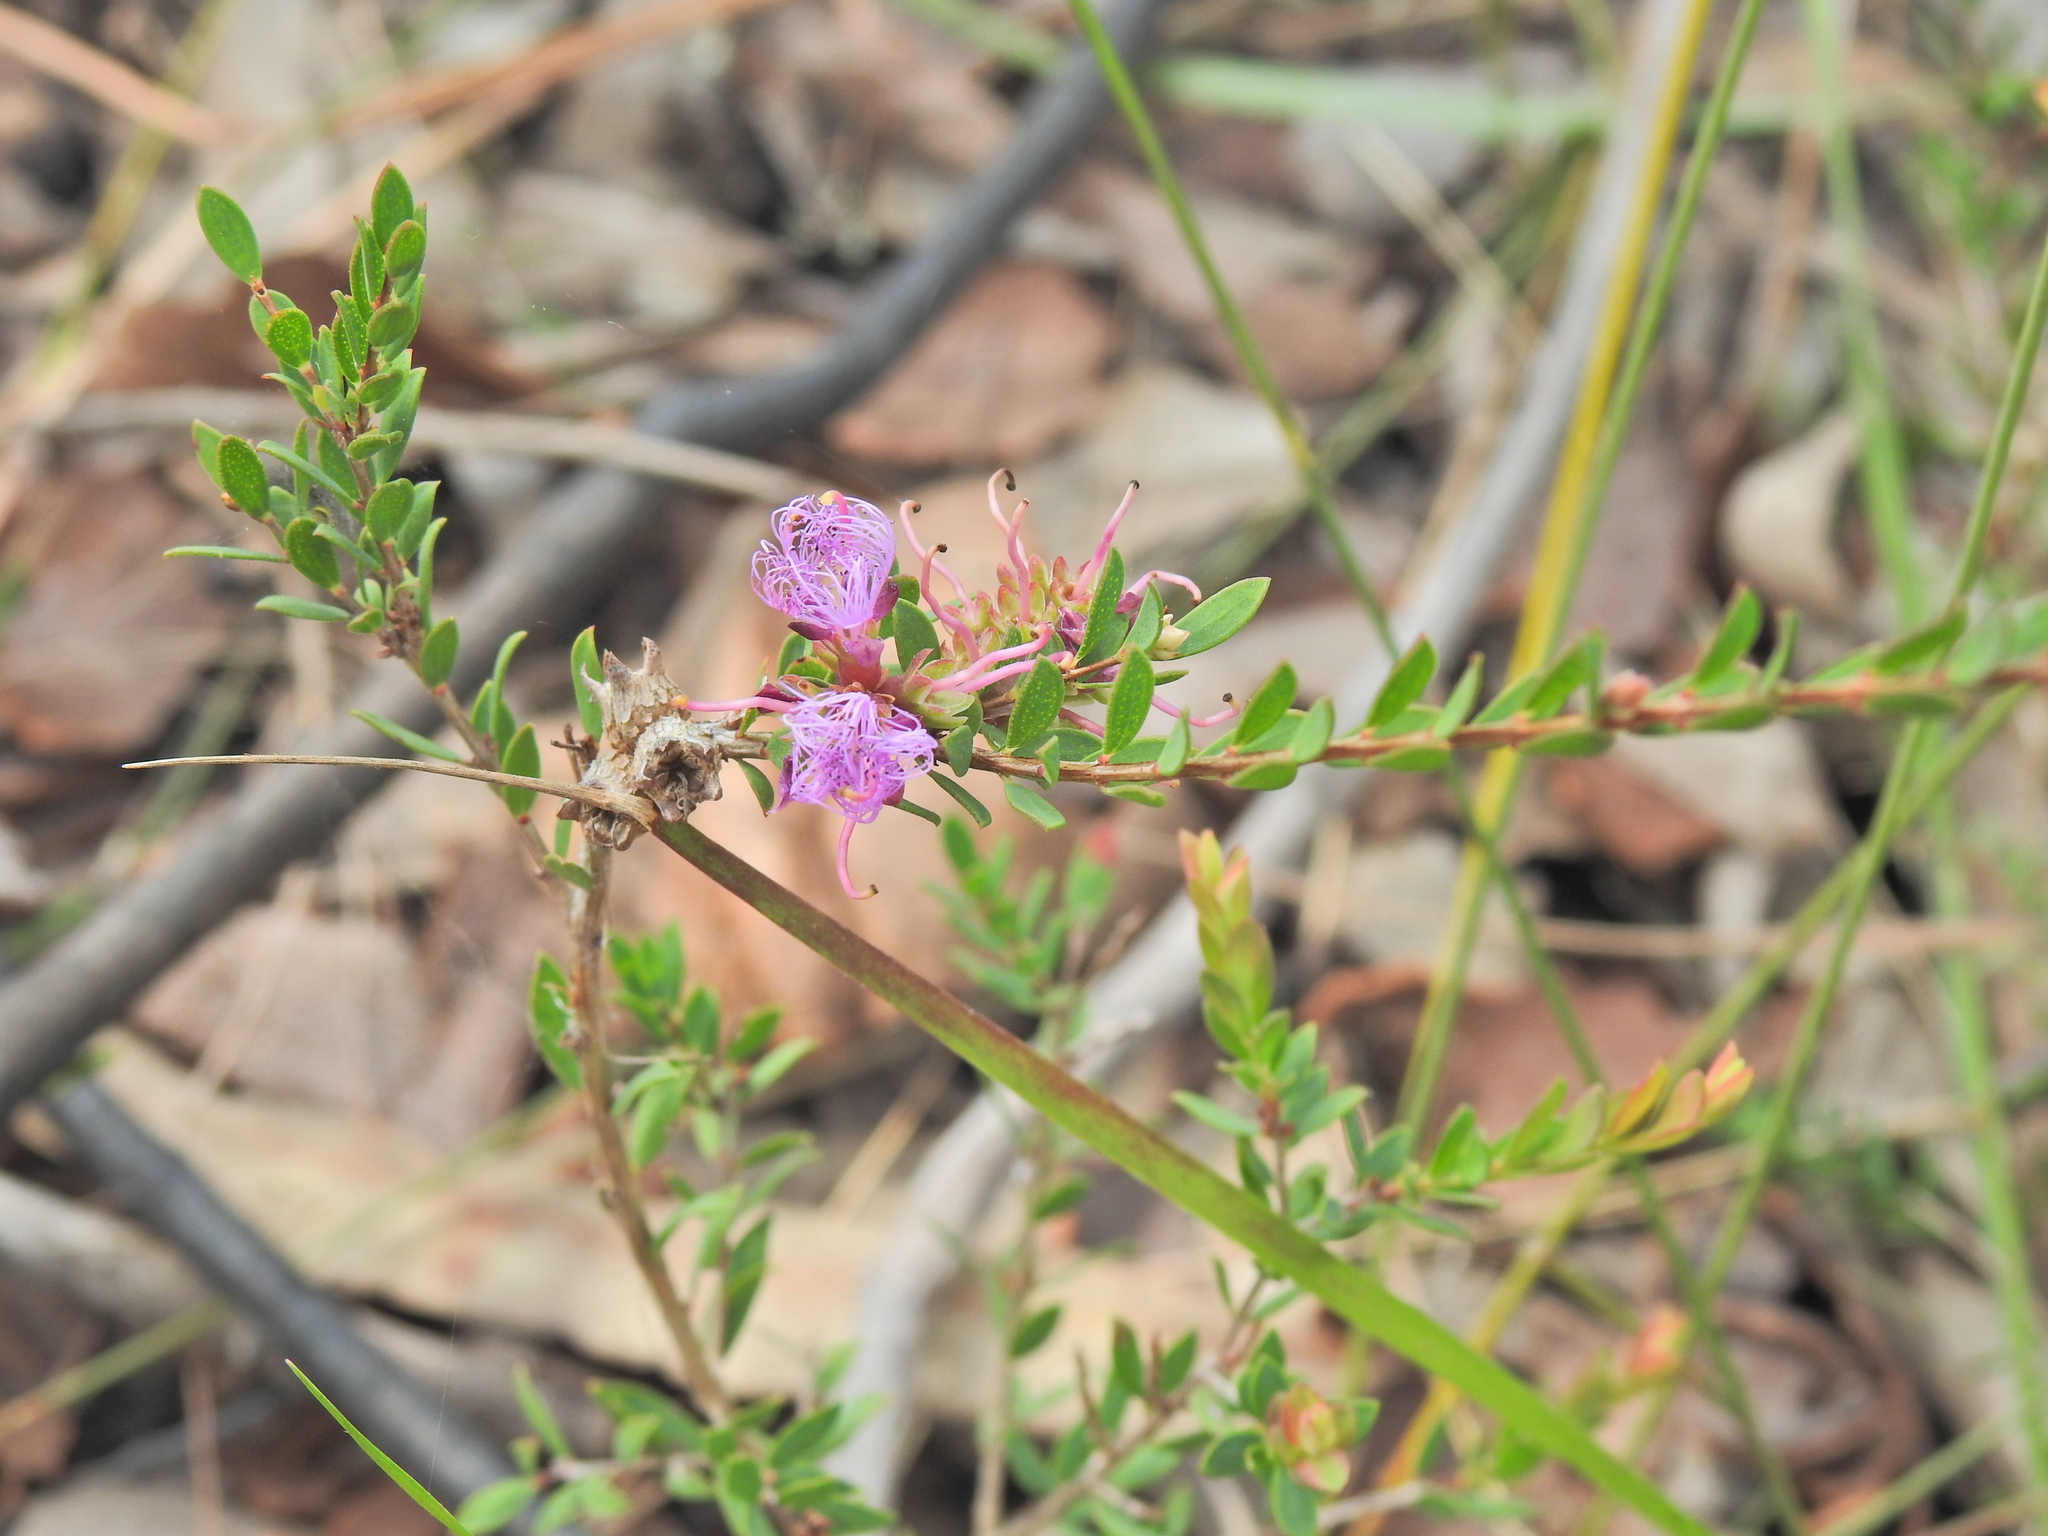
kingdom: Plantae
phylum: Tracheophyta
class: Magnoliopsida
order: Myrtales
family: Myrtaceae
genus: Melaleuca
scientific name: Melaleuca thymifolia
